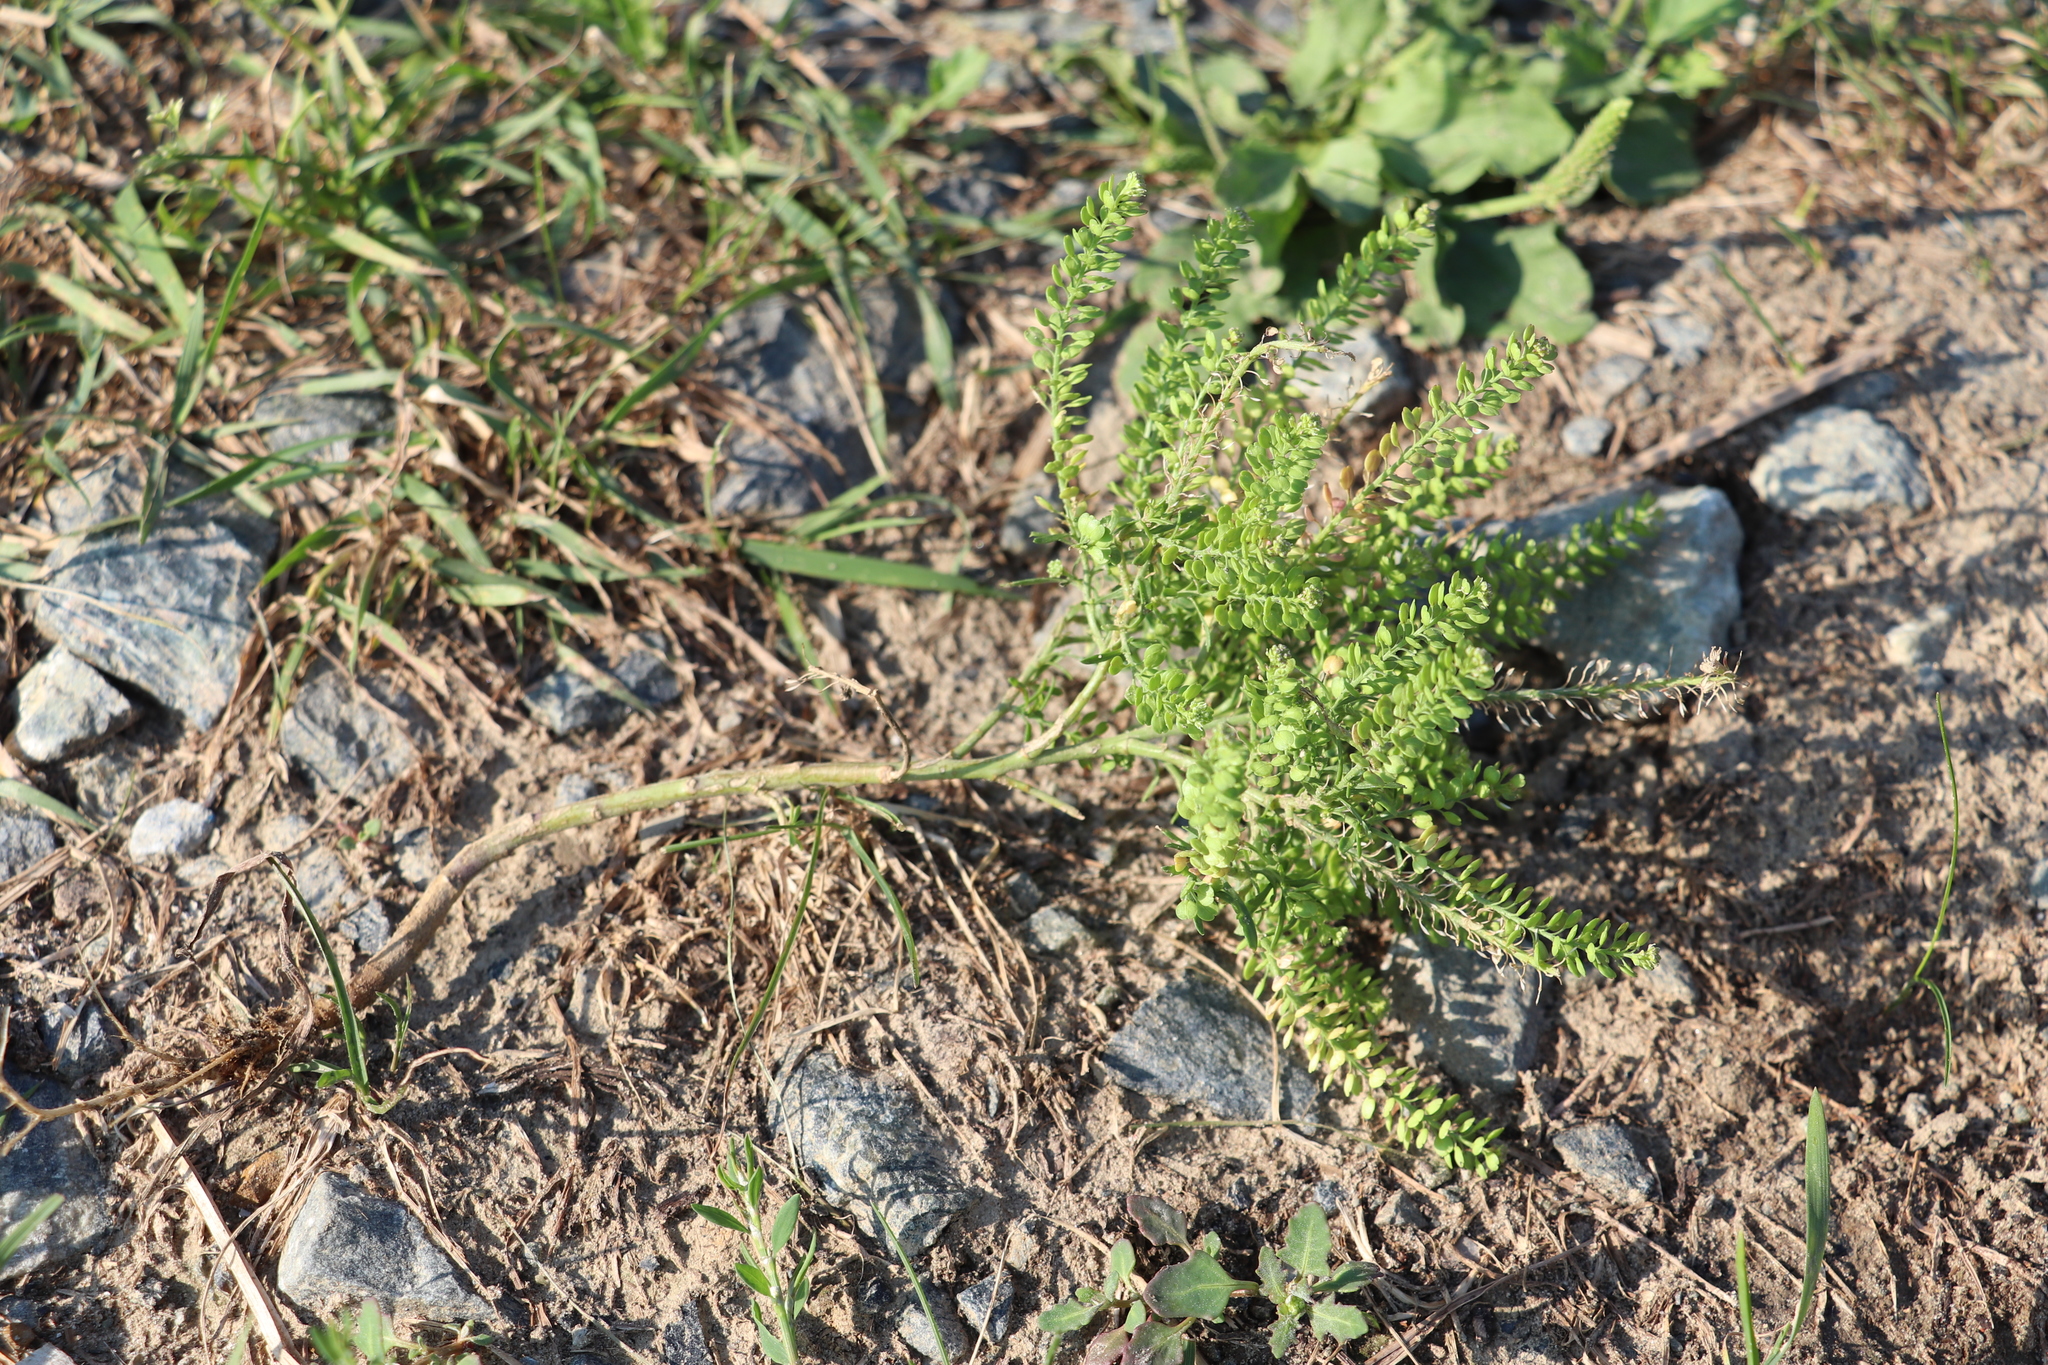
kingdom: Plantae
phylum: Tracheophyta
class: Magnoliopsida
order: Brassicales
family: Brassicaceae
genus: Lepidium
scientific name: Lepidium densiflorum
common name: Miner's pepperwort
